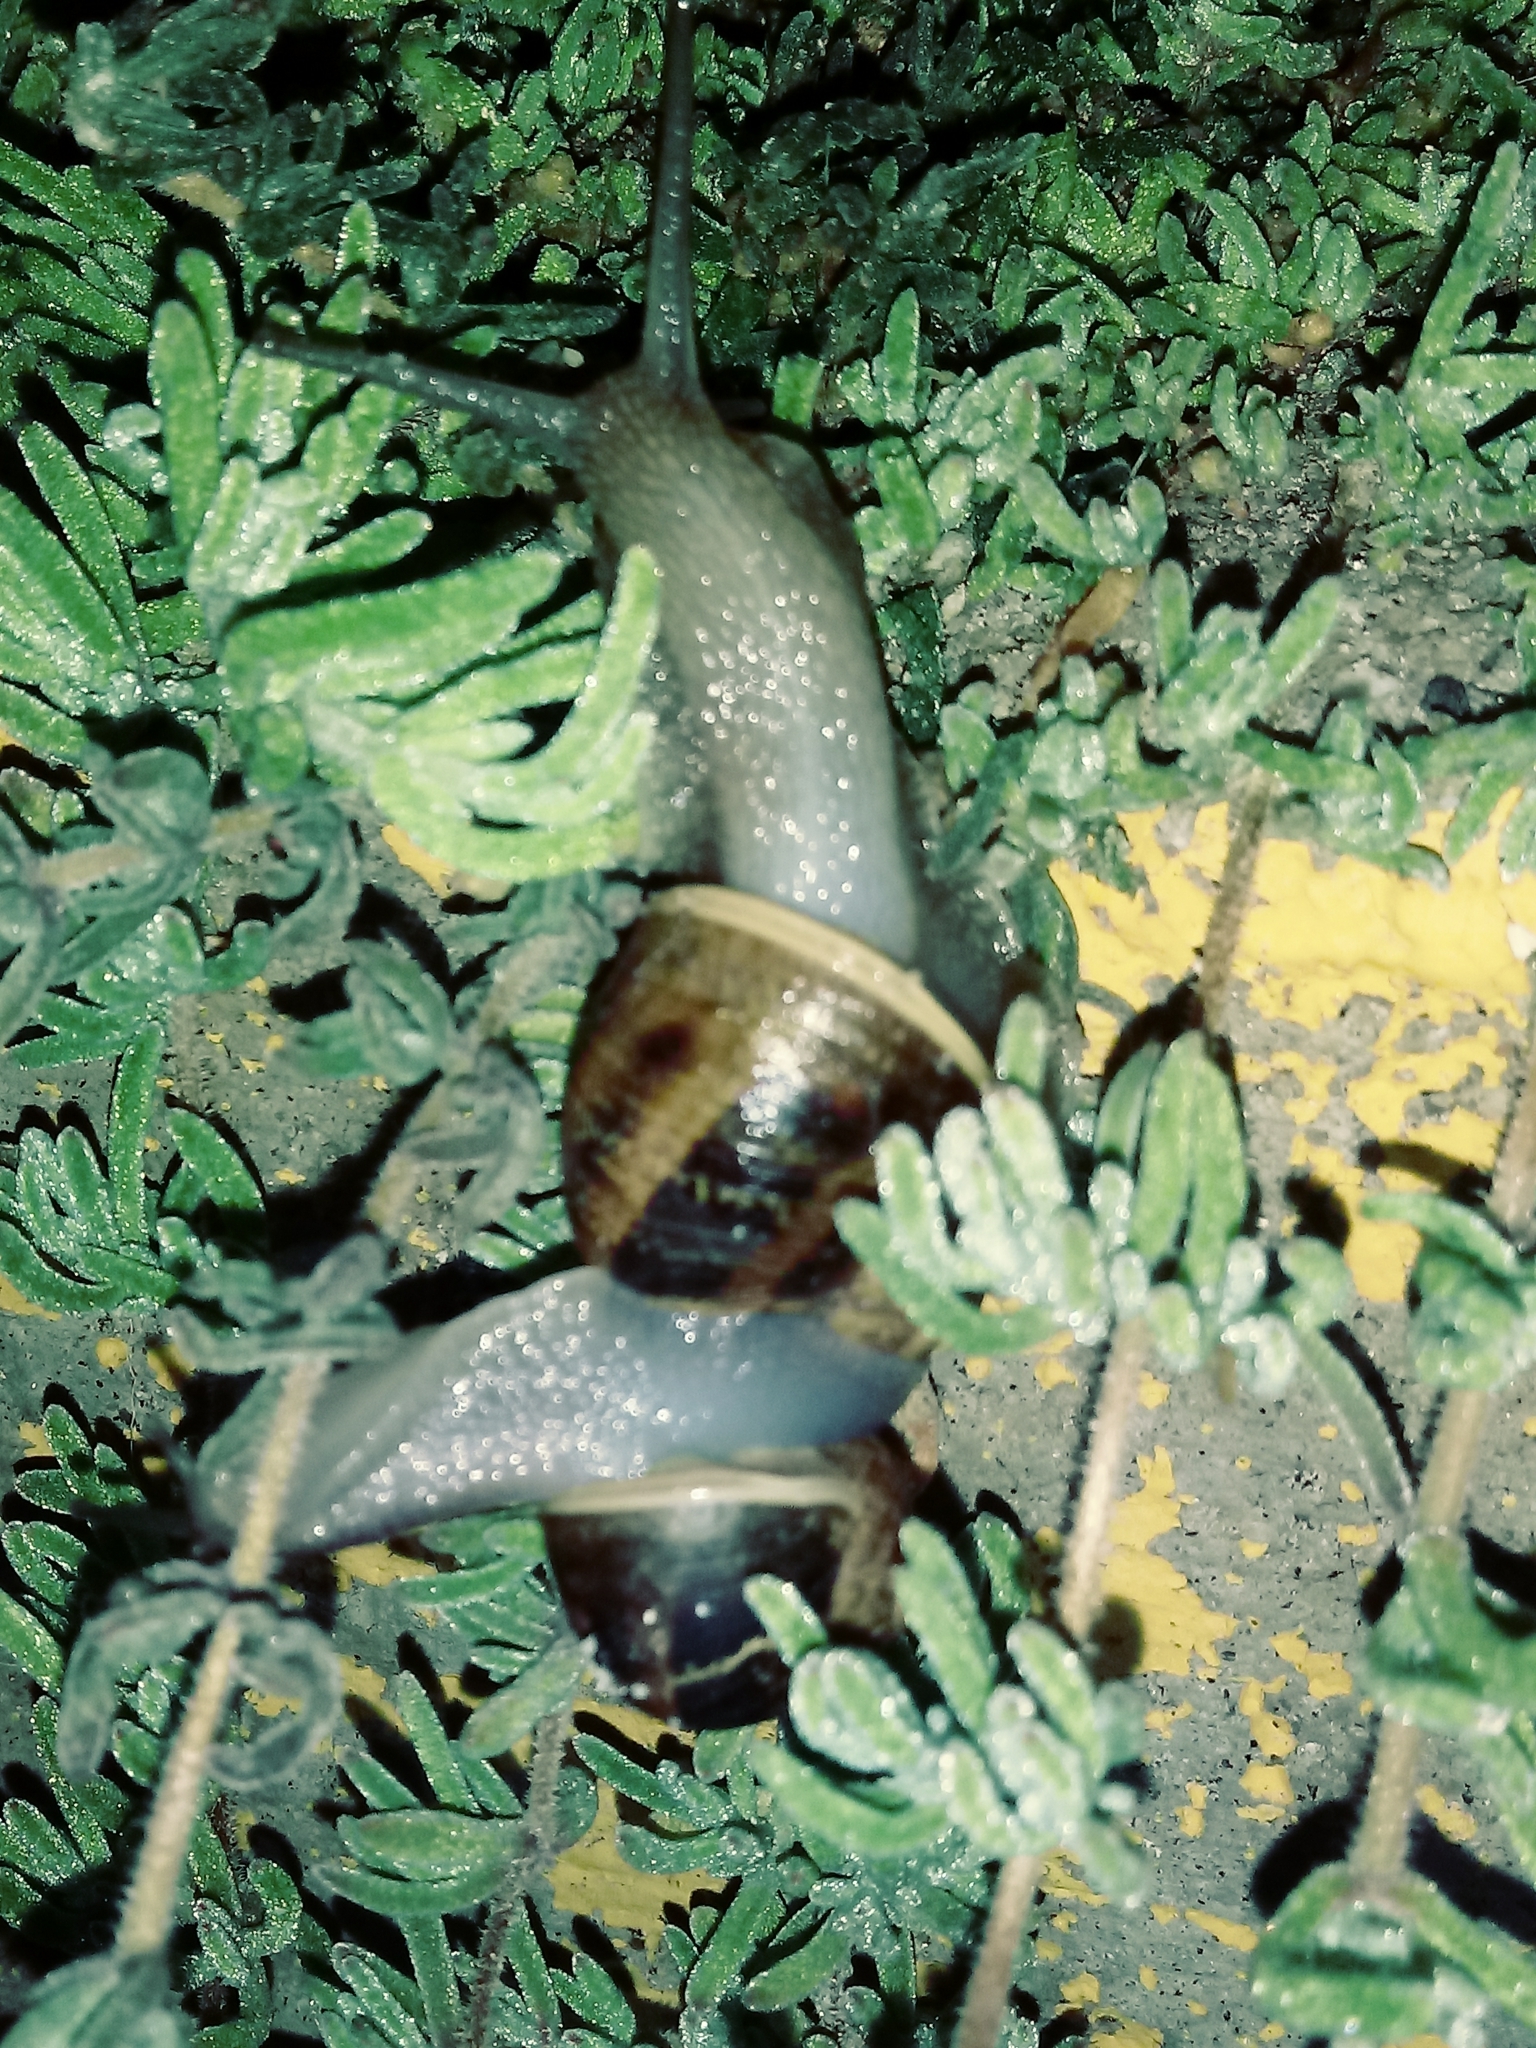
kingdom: Animalia
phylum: Mollusca
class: Gastropoda
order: Stylommatophora
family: Helicidae
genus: Cornu
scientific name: Cornu aspersum
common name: Brown garden snail
